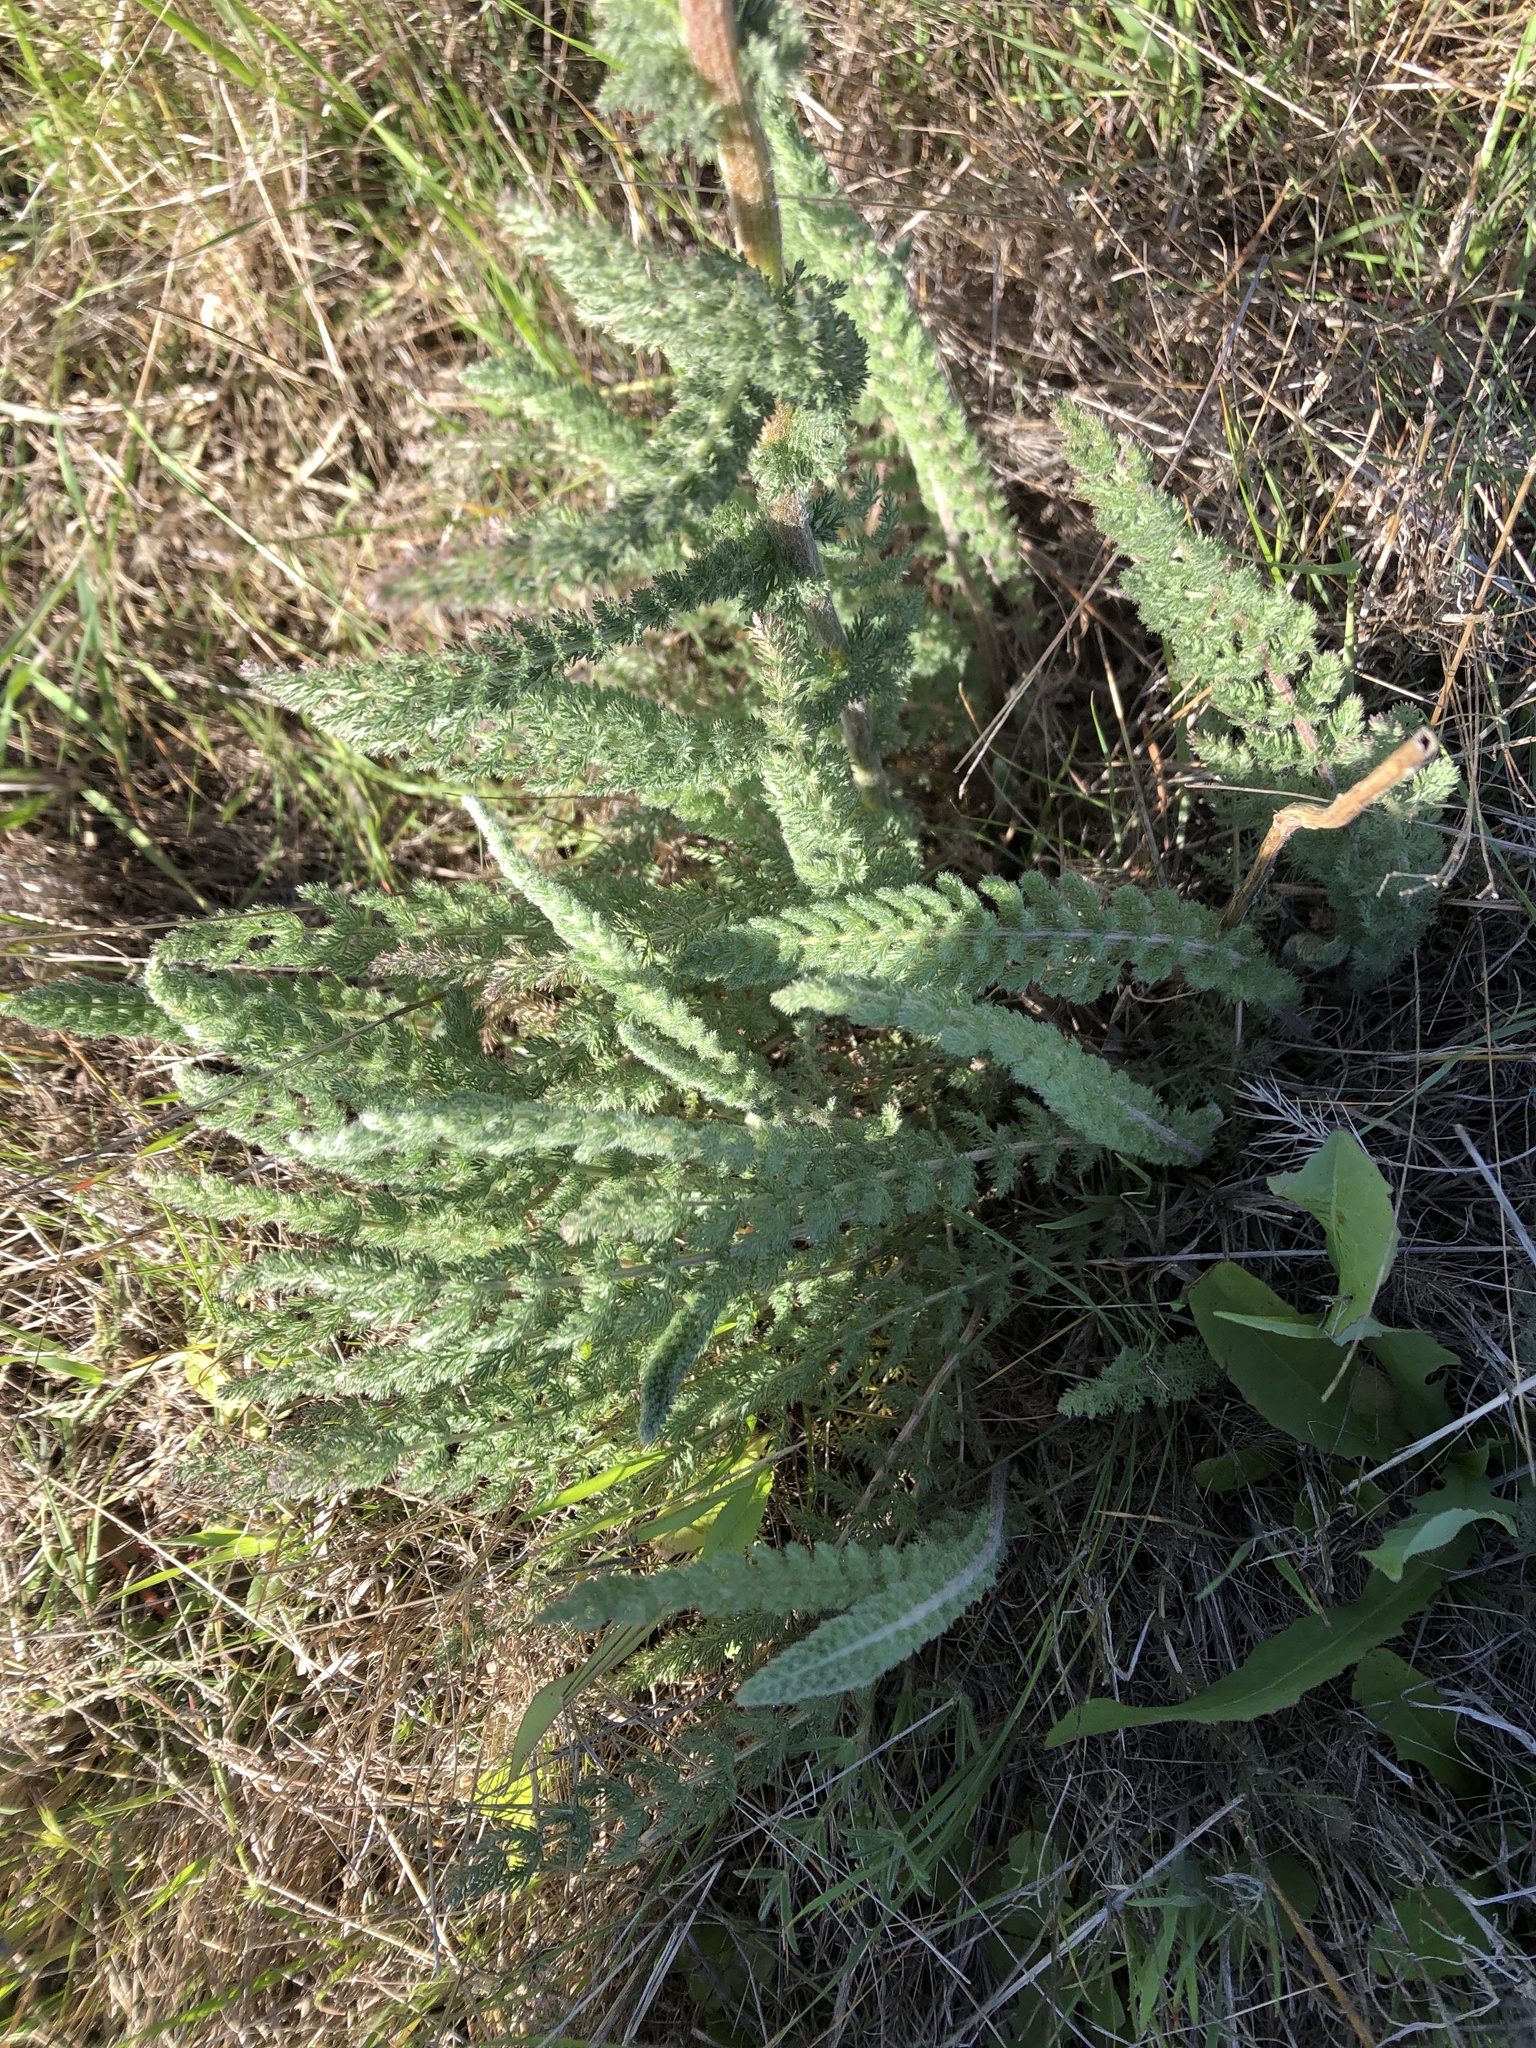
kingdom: Plantae
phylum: Tracheophyta
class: Magnoliopsida
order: Asterales
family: Asteraceae
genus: Achillea
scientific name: Achillea millefolium
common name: Yarrow
